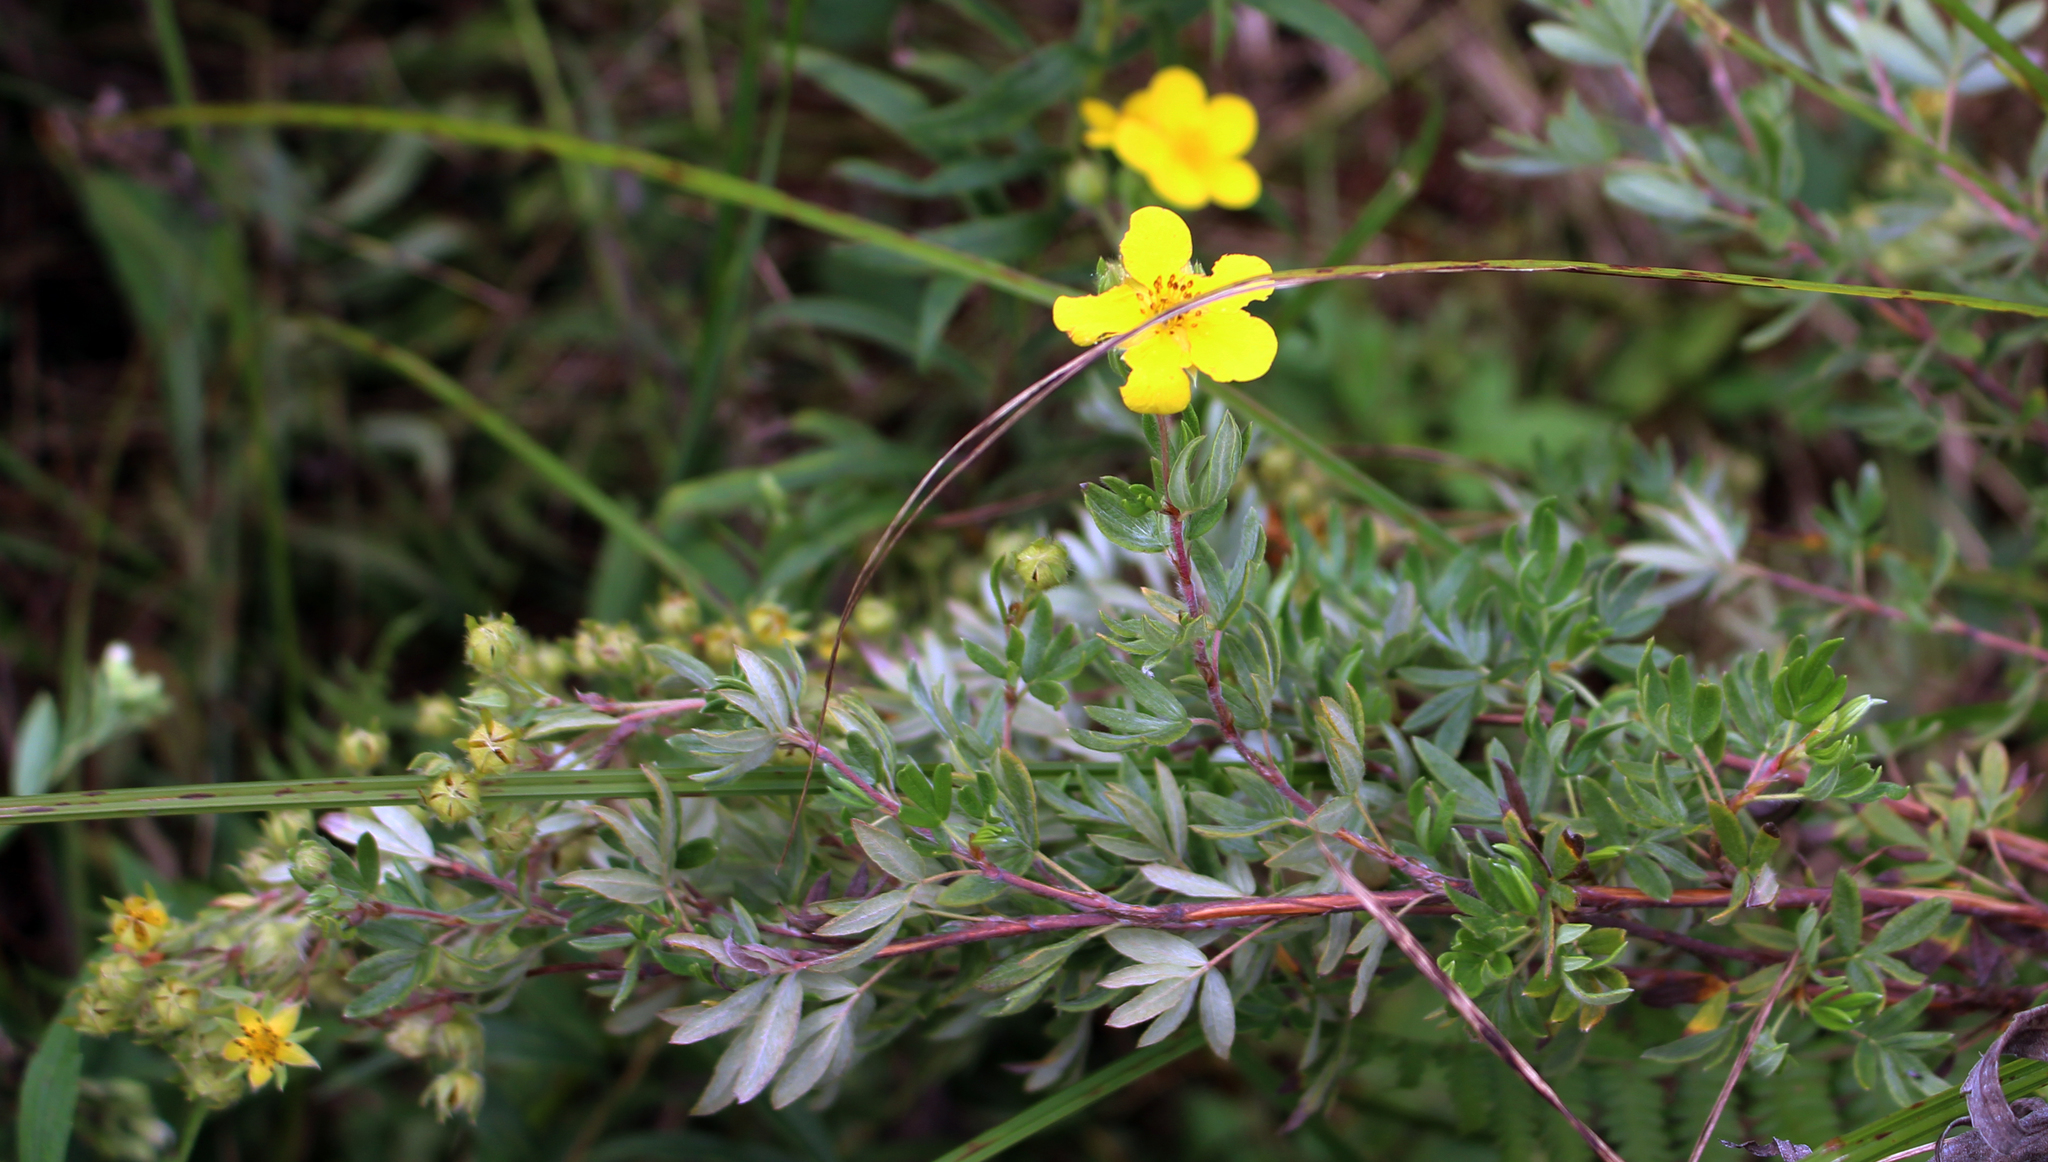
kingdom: Plantae
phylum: Tracheophyta
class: Magnoliopsida
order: Rosales
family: Rosaceae
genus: Dasiphora
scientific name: Dasiphora fruticosa
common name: Shrubby cinquefoil
